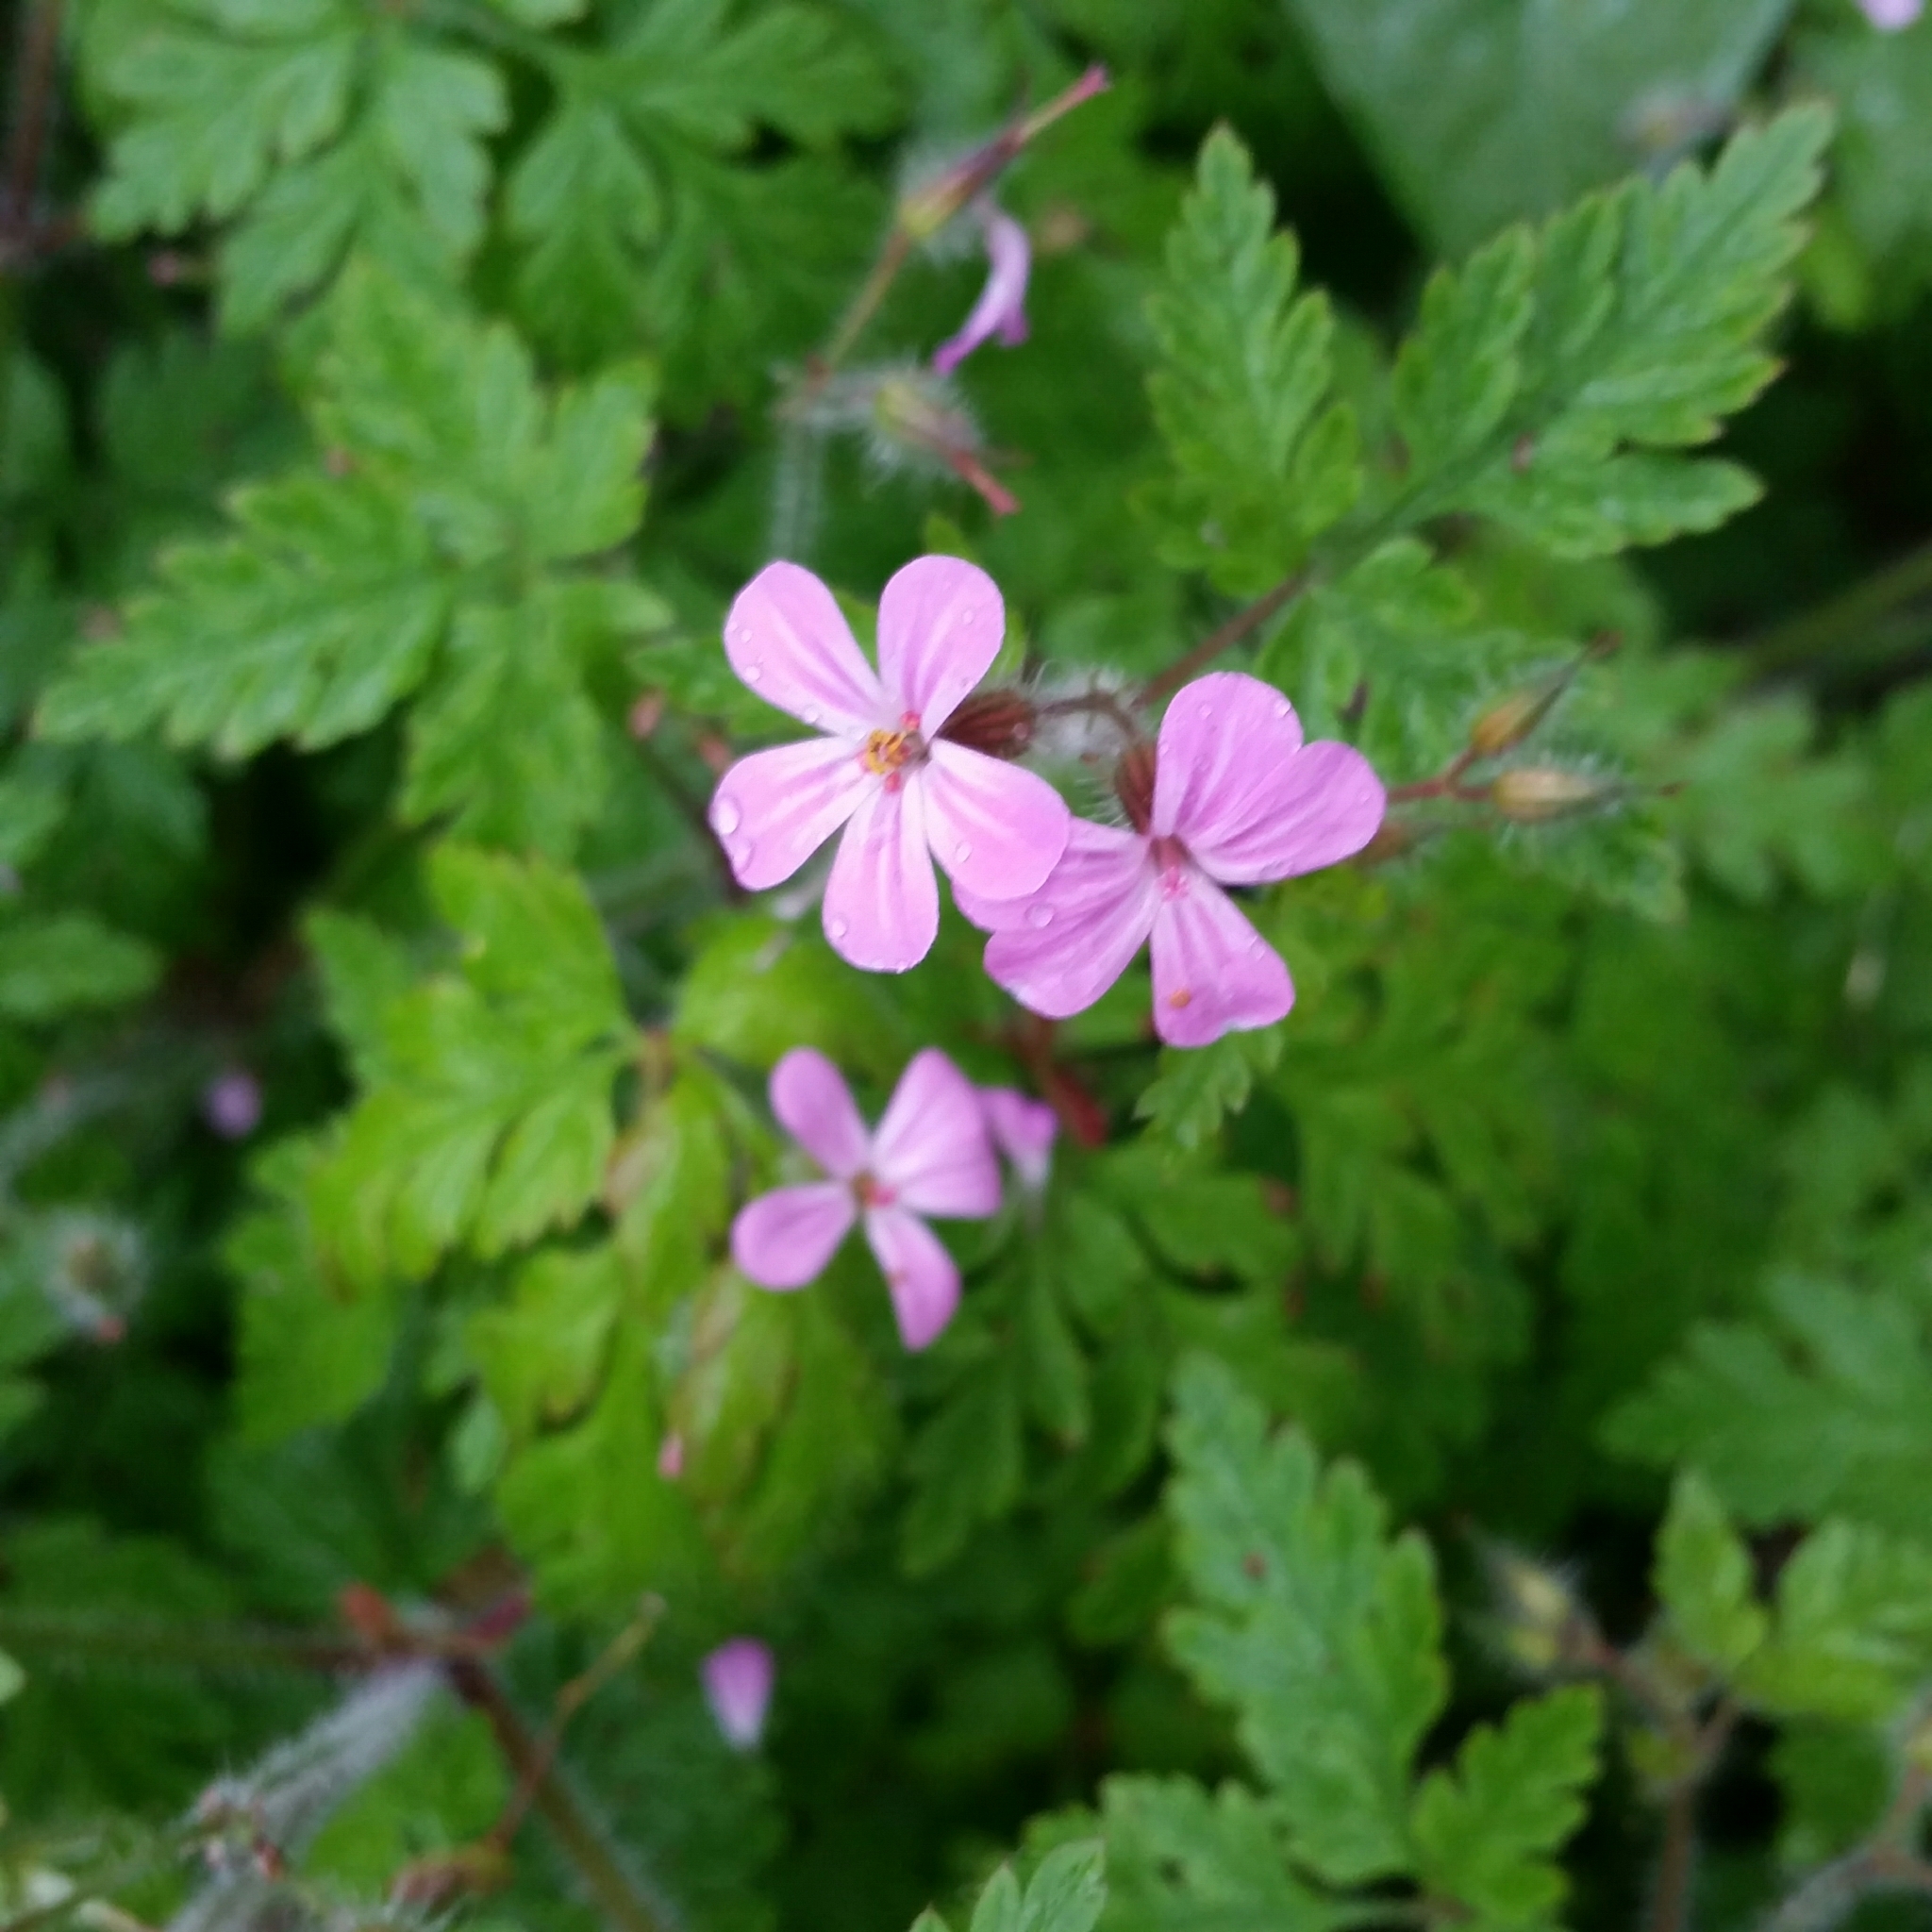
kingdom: Plantae
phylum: Tracheophyta
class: Magnoliopsida
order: Geraniales
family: Geraniaceae
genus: Geranium
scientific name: Geranium robertianum
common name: Herb-robert
